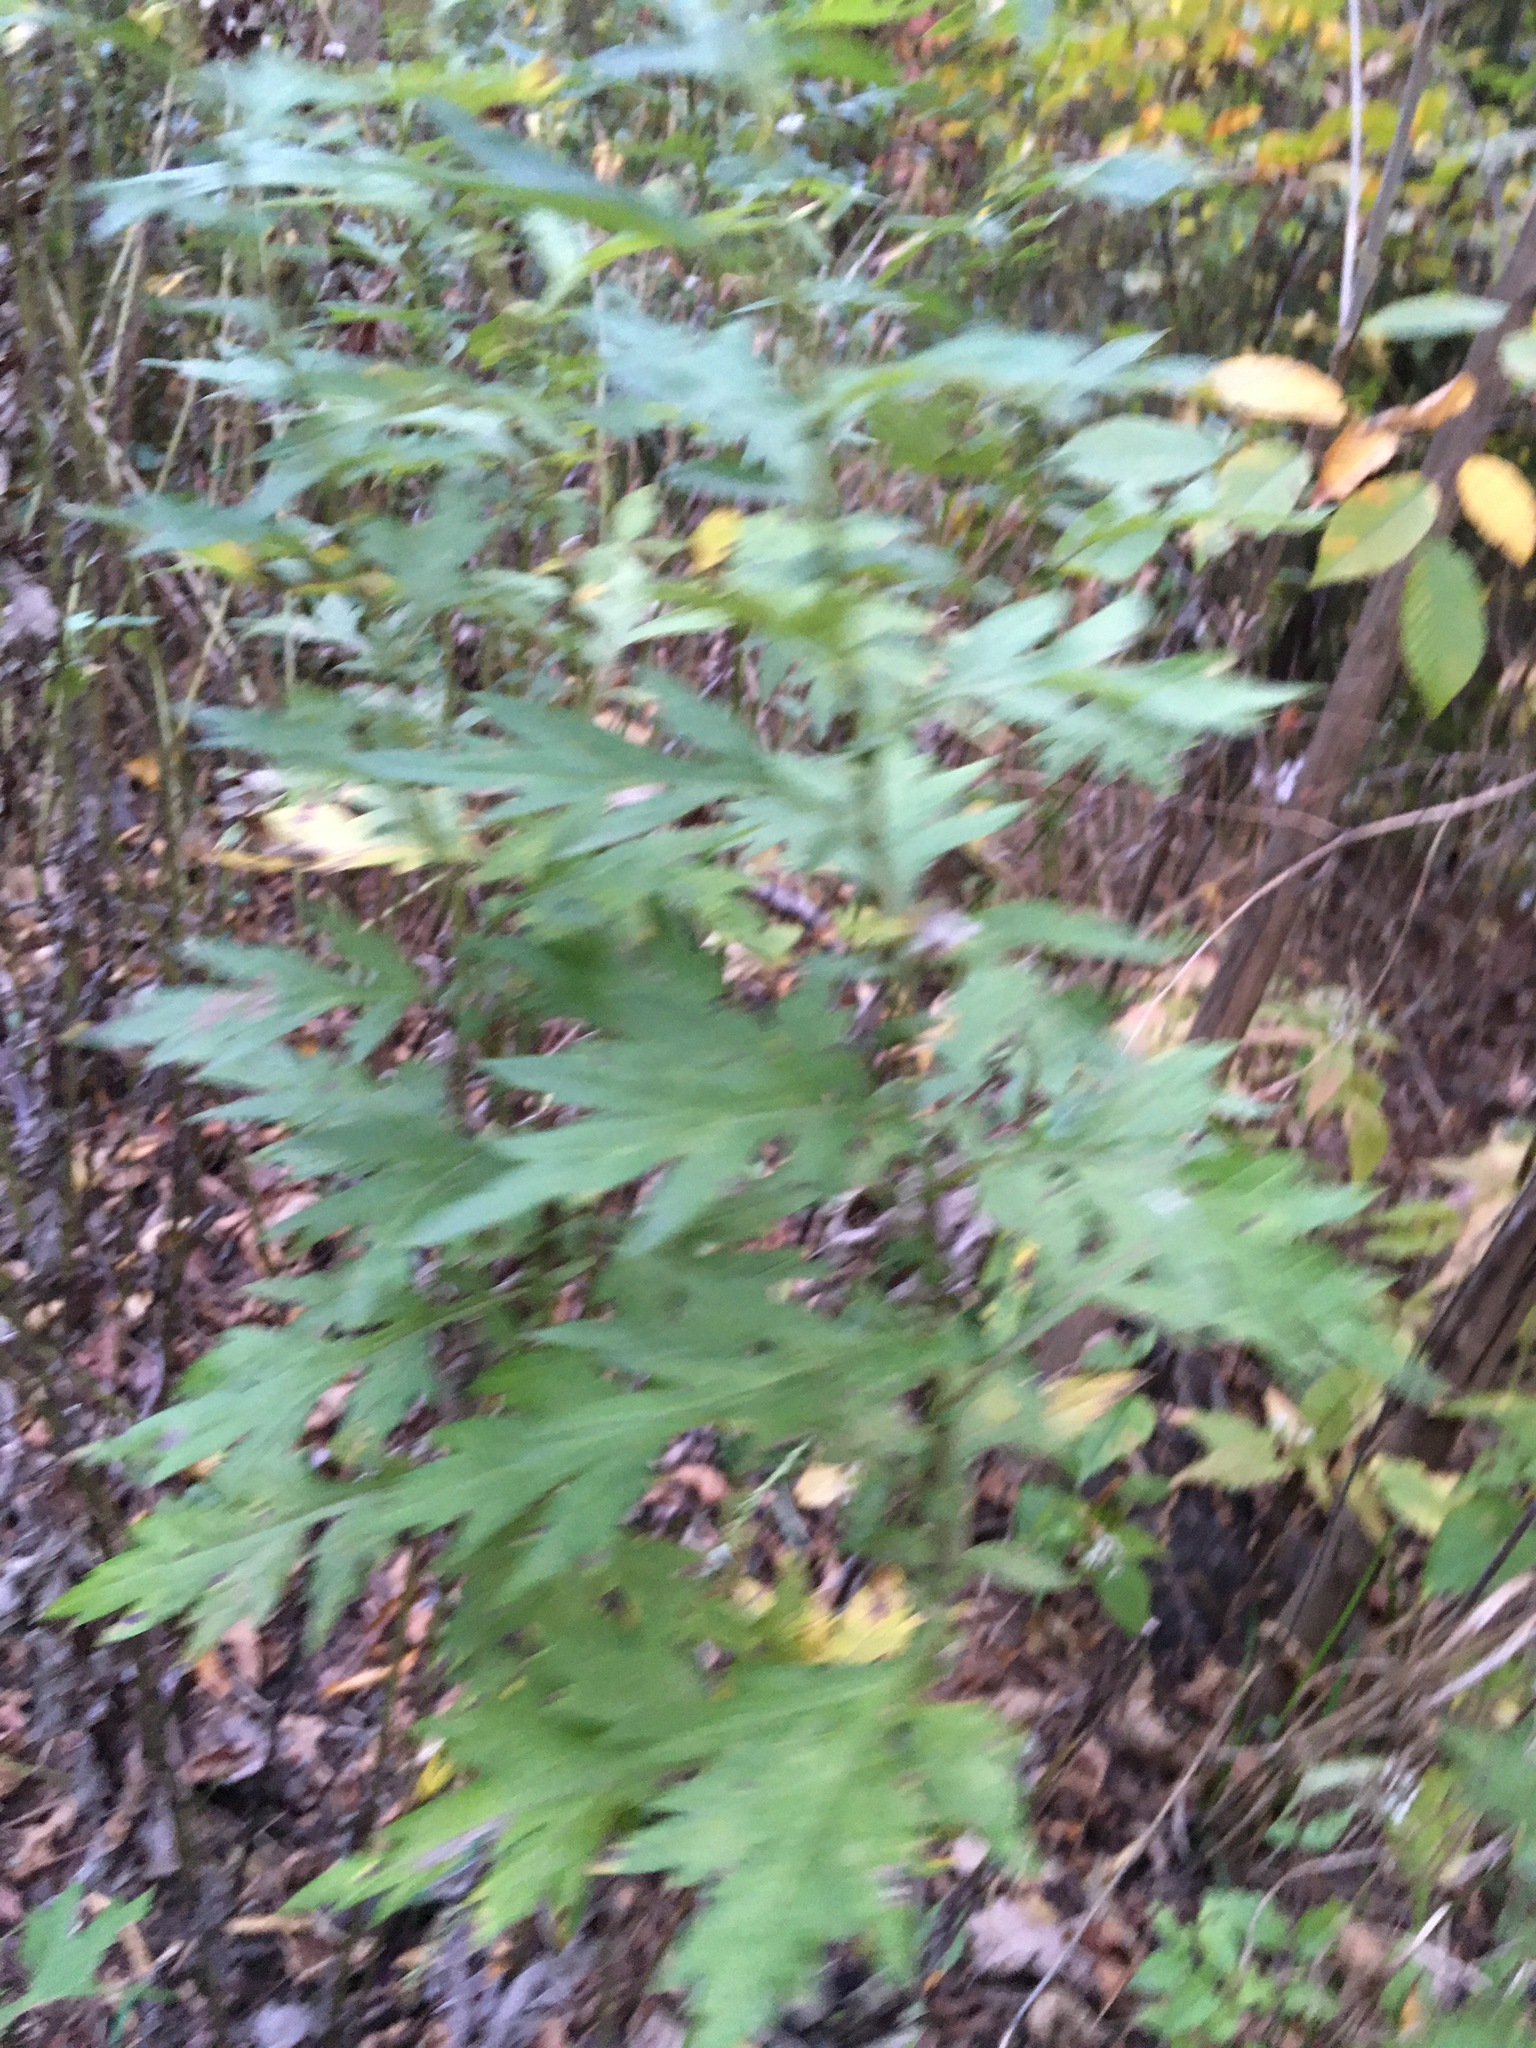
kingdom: Plantae
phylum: Tracheophyta
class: Magnoliopsida
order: Asterales
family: Asteraceae
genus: Artemisia
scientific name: Artemisia vulgaris
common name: Mugwort
